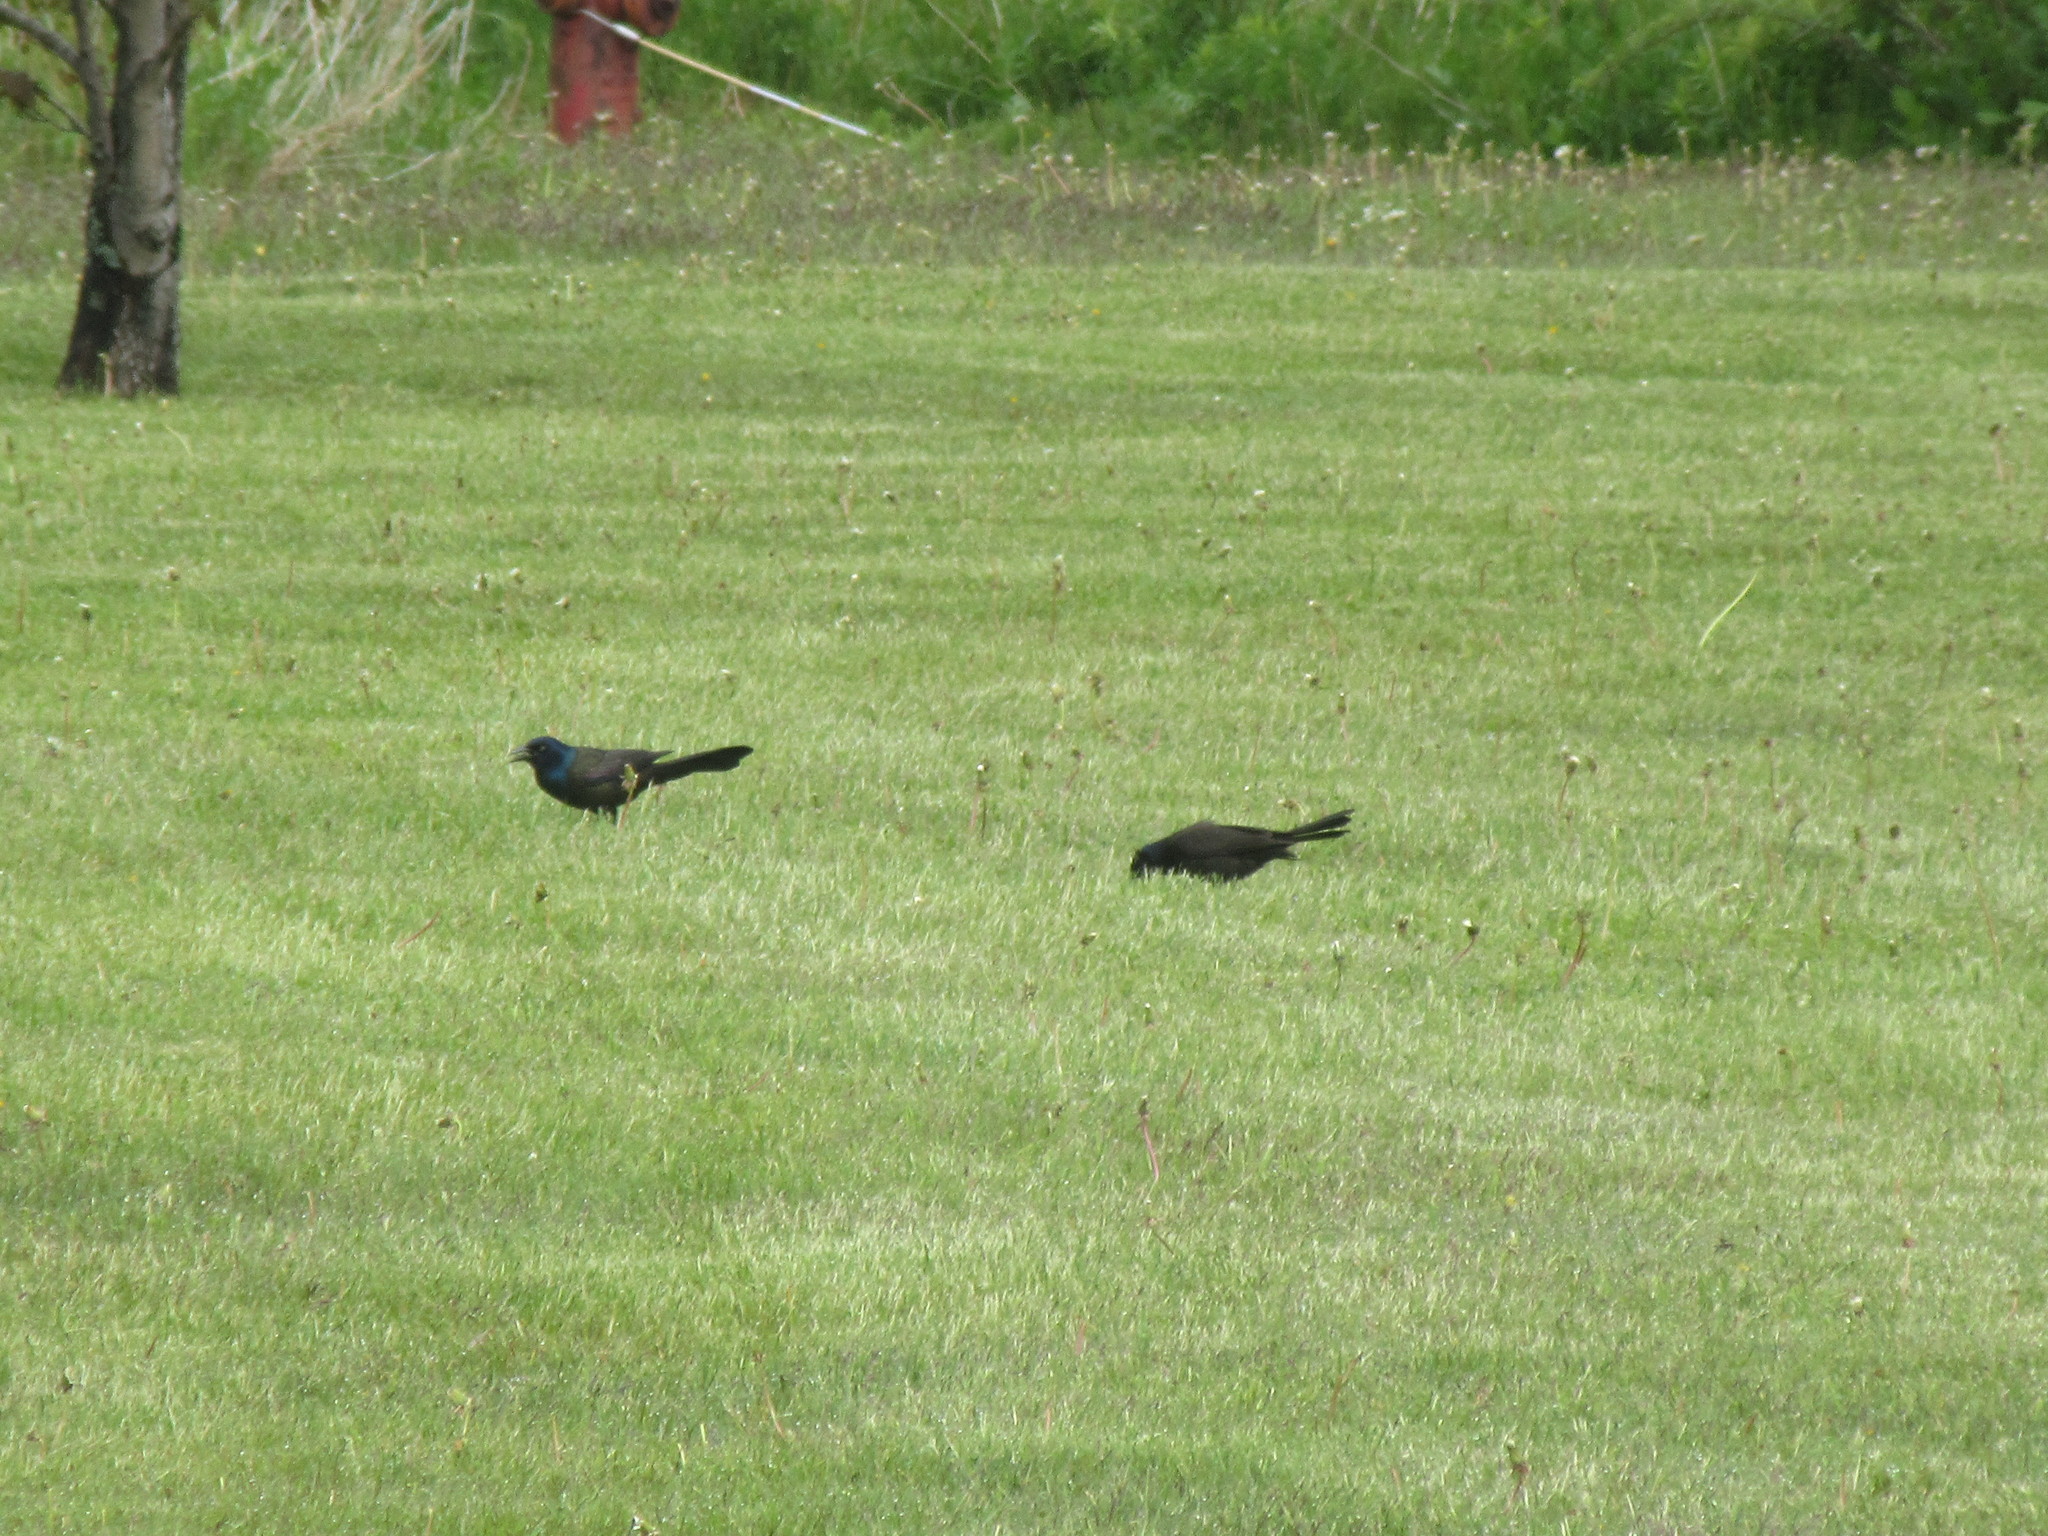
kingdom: Animalia
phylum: Chordata
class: Aves
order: Passeriformes
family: Icteridae
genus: Quiscalus
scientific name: Quiscalus quiscula
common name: Common grackle
